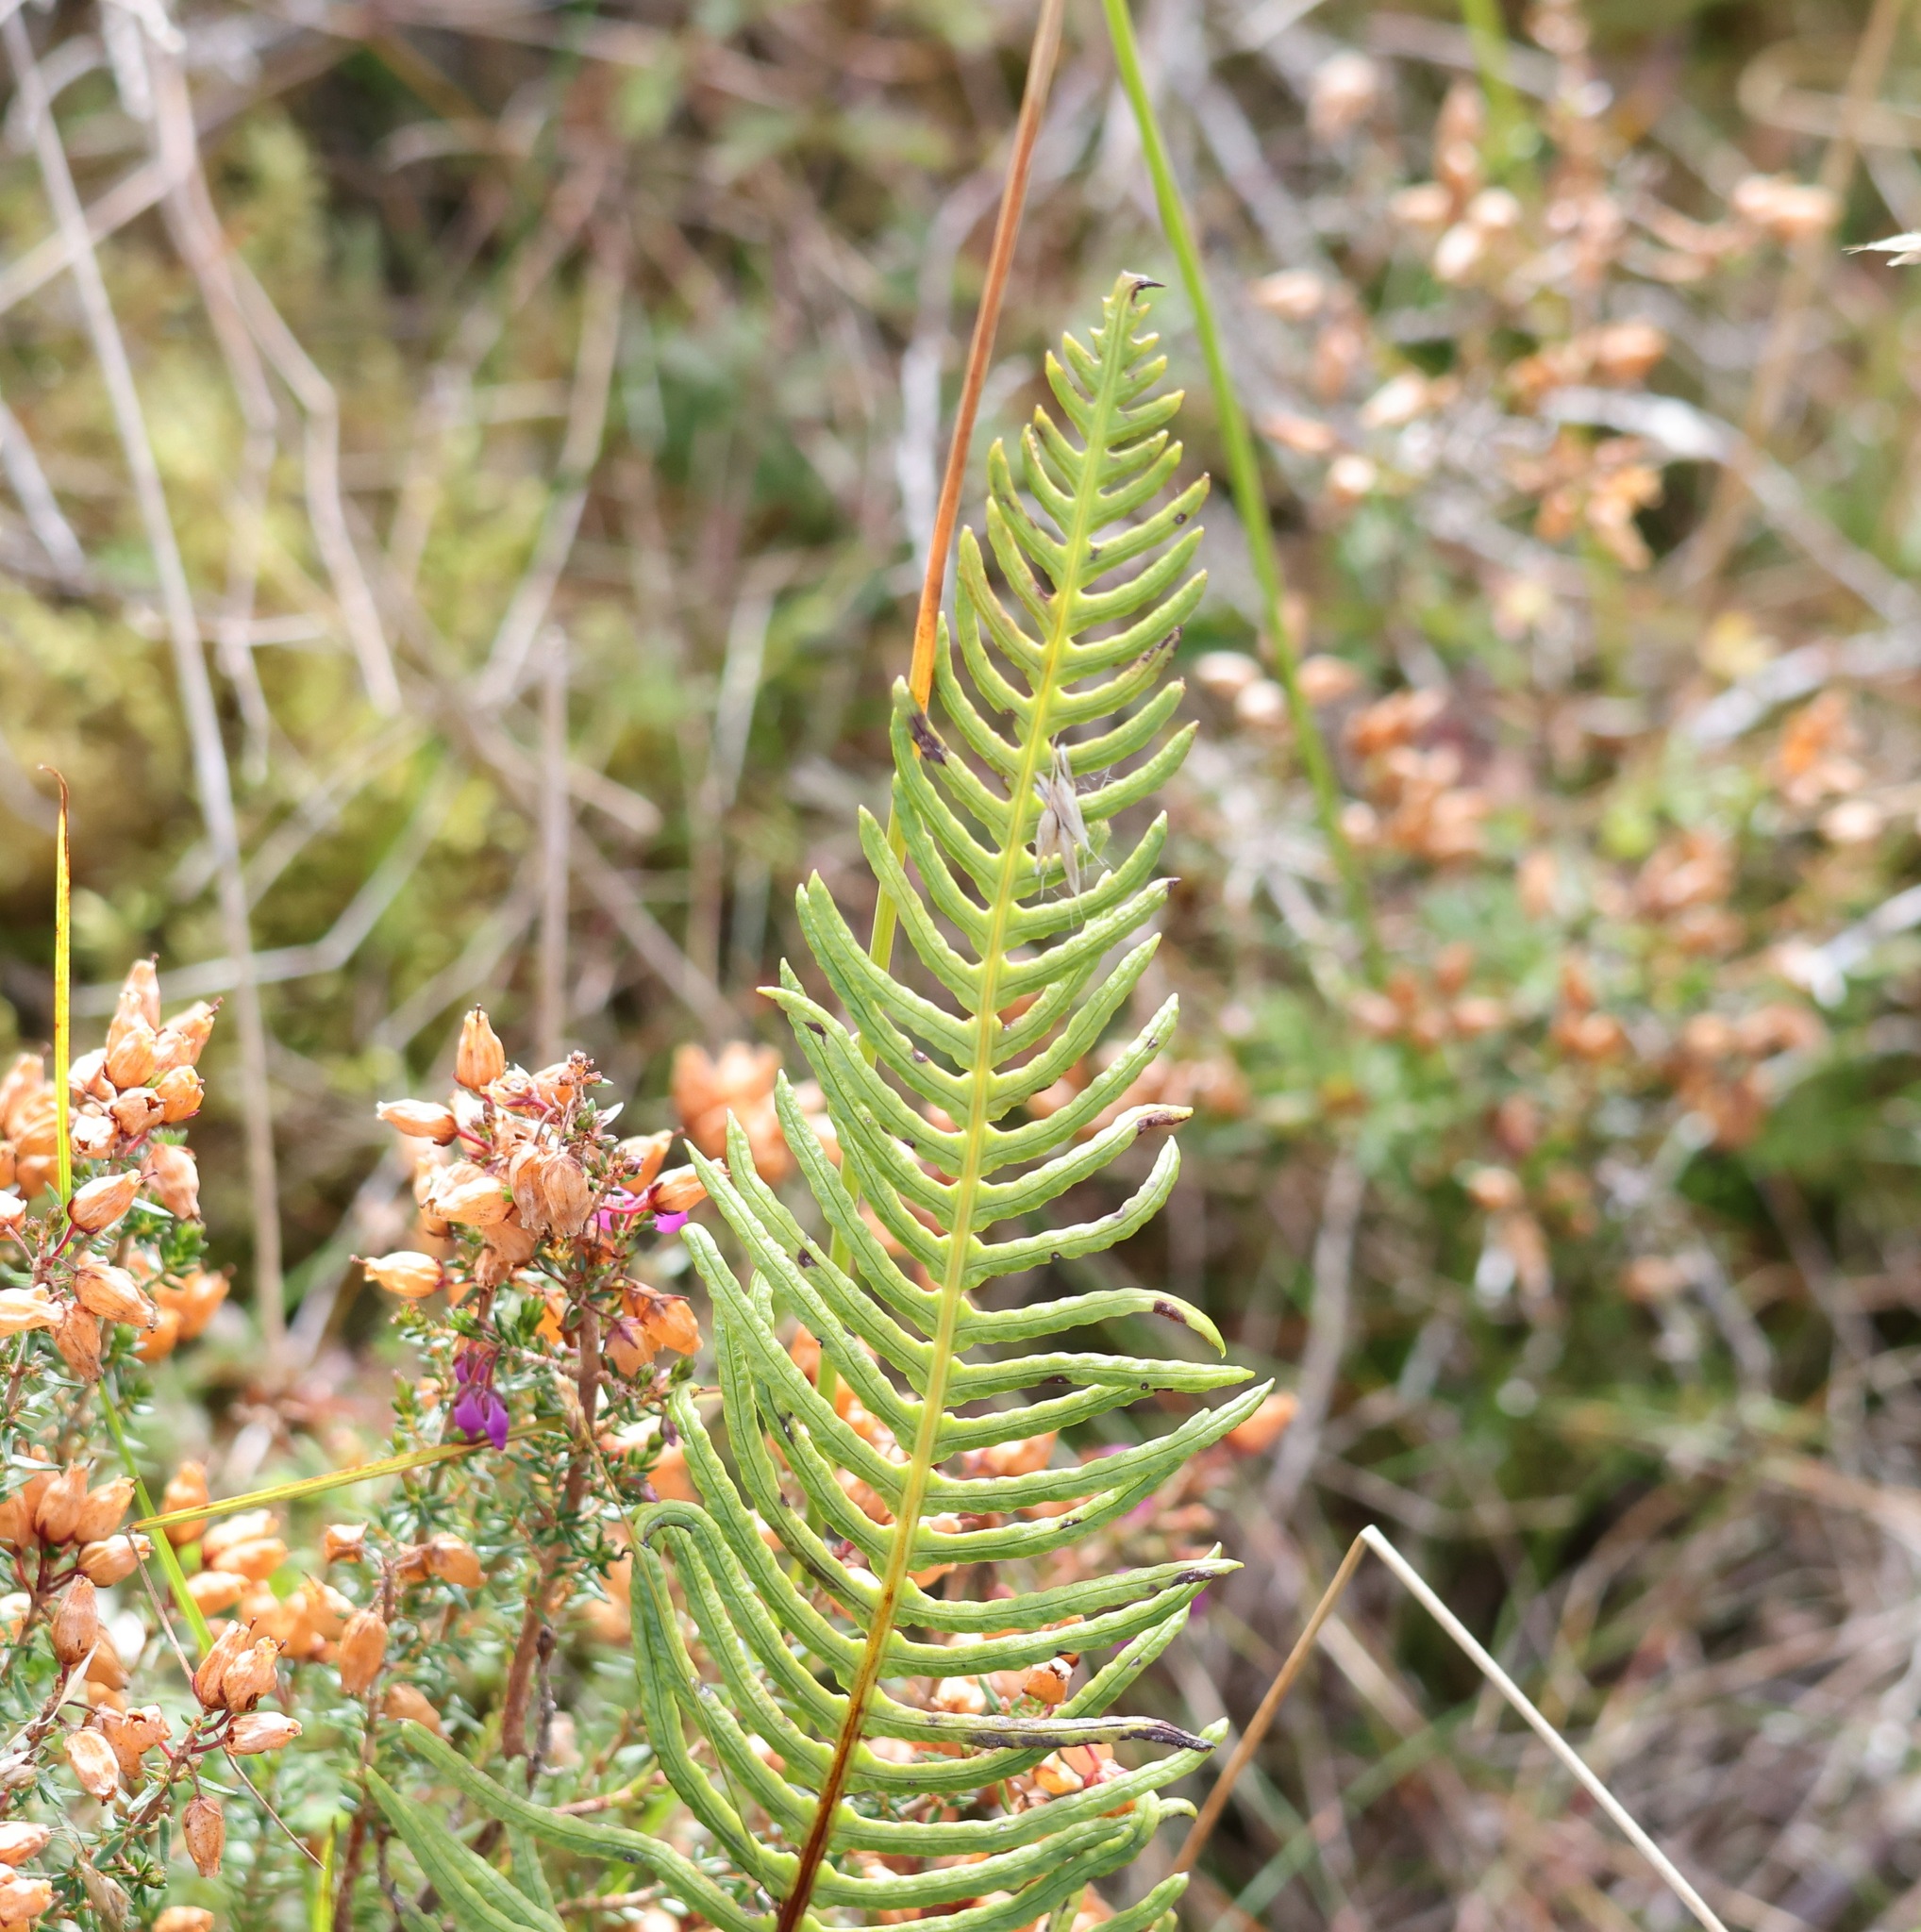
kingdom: Plantae
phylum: Tracheophyta
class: Polypodiopsida
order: Polypodiales
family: Blechnaceae
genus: Struthiopteris
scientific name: Struthiopteris spicant
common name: Deer fern
